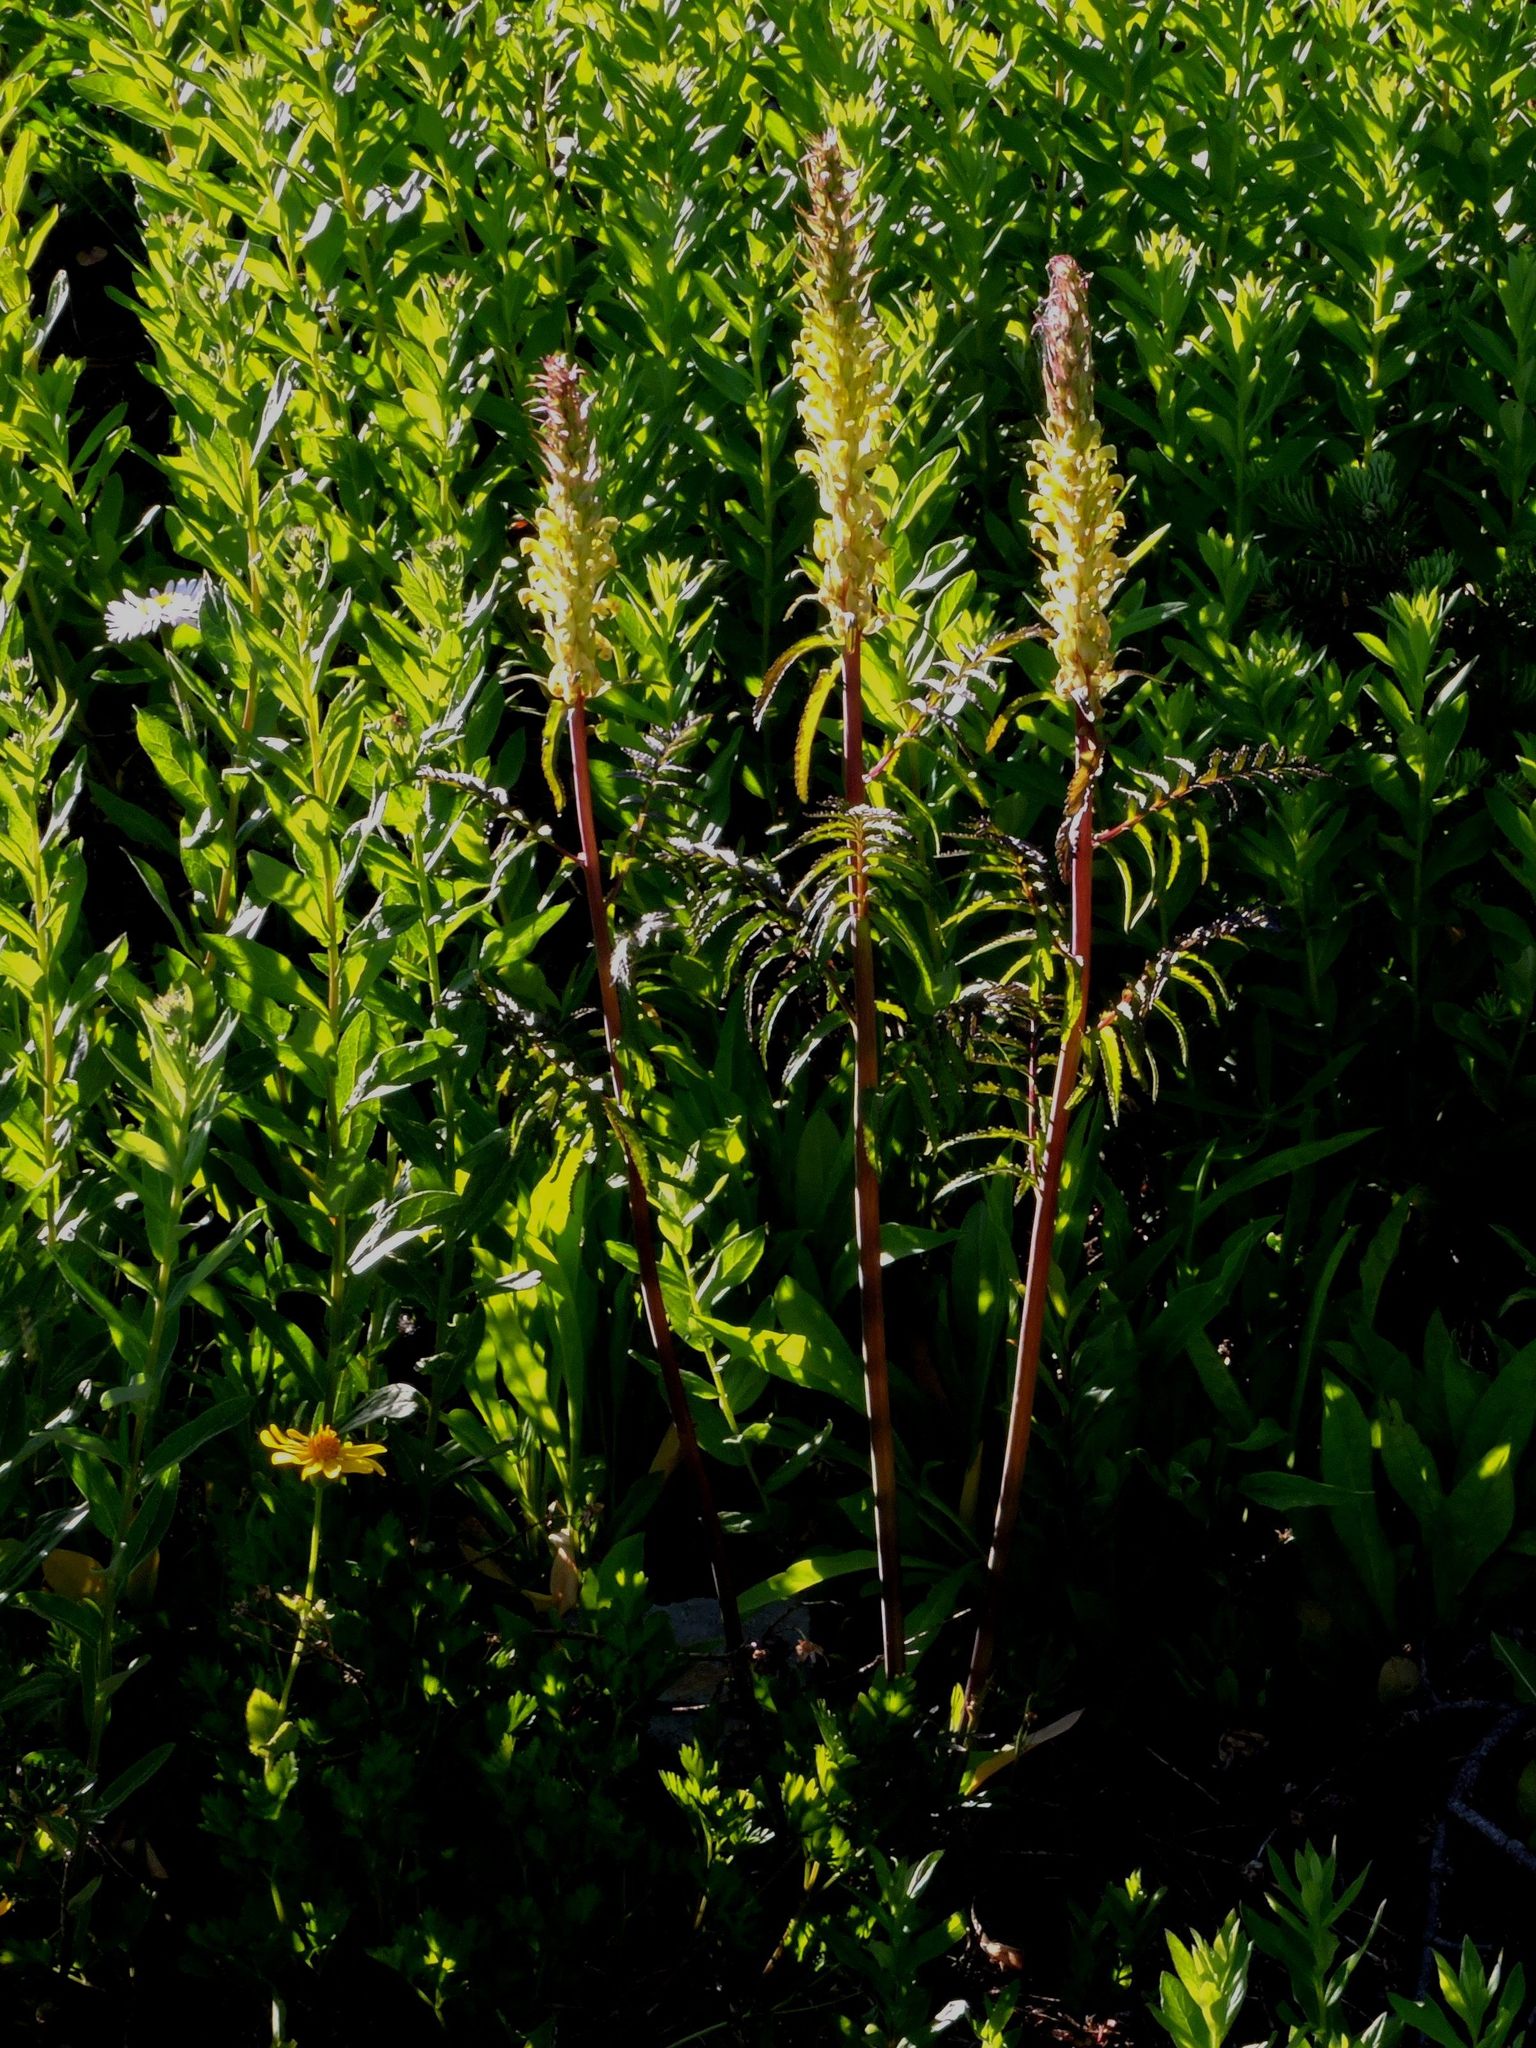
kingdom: Plantae
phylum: Tracheophyta
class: Magnoliopsida
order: Lamiales
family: Orobanchaceae
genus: Pedicularis
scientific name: Pedicularis bracteosa
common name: Bracted lousewort
